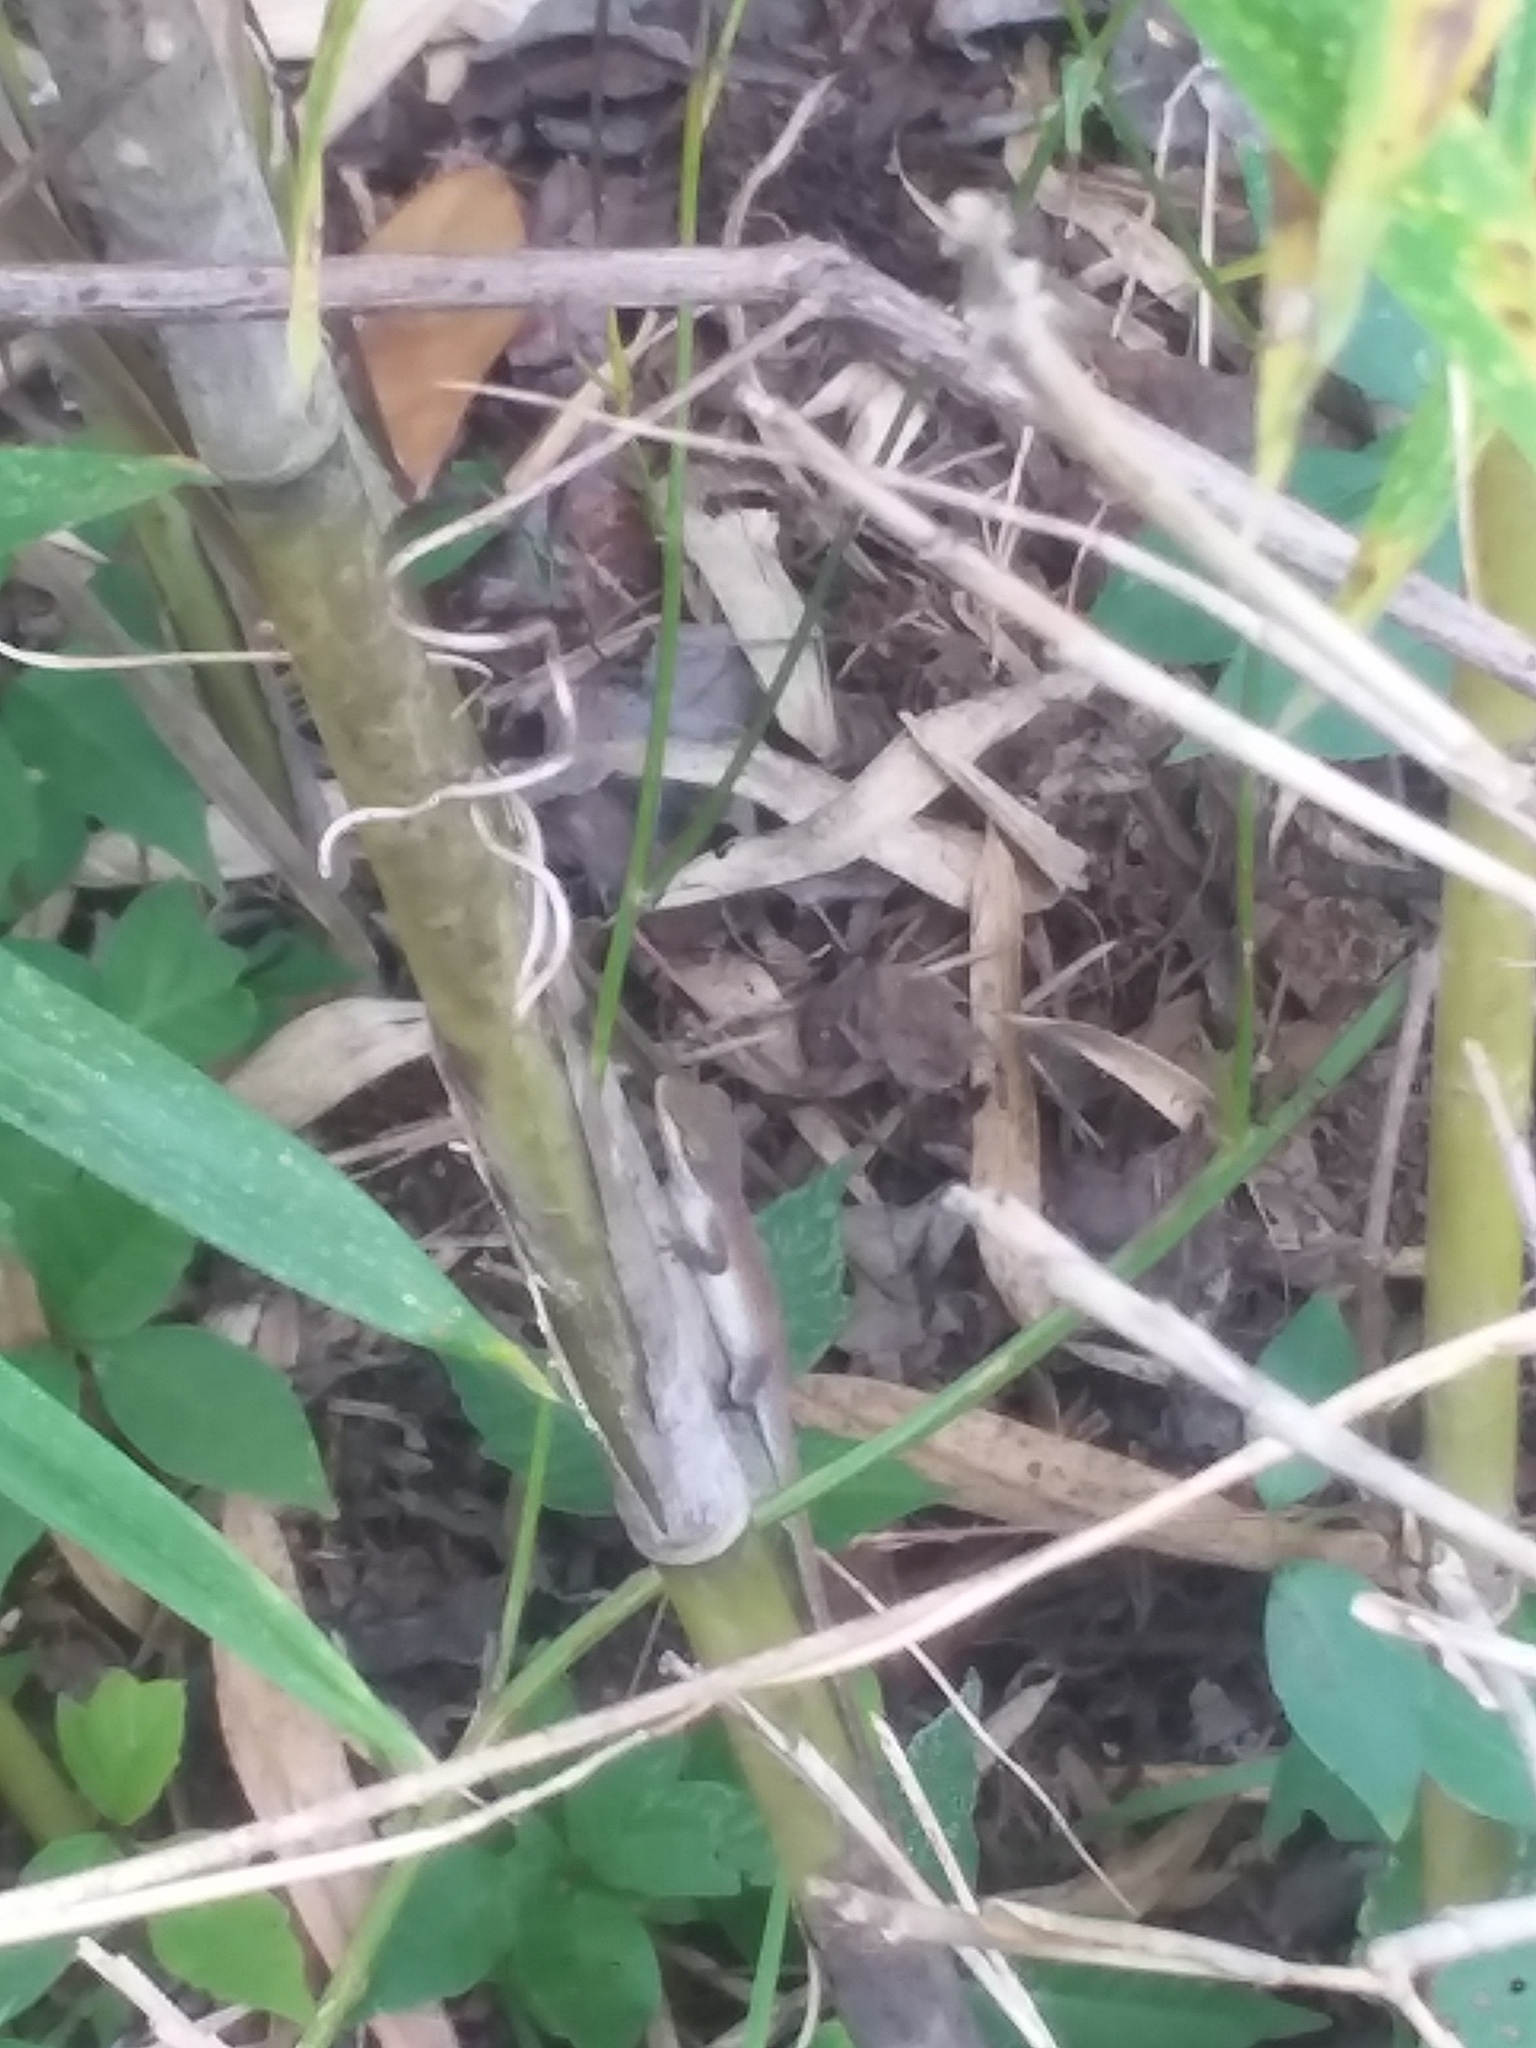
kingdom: Animalia
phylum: Chordata
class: Squamata
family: Dactyloidae
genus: Anolis
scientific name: Anolis carolinensis
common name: Green anole
